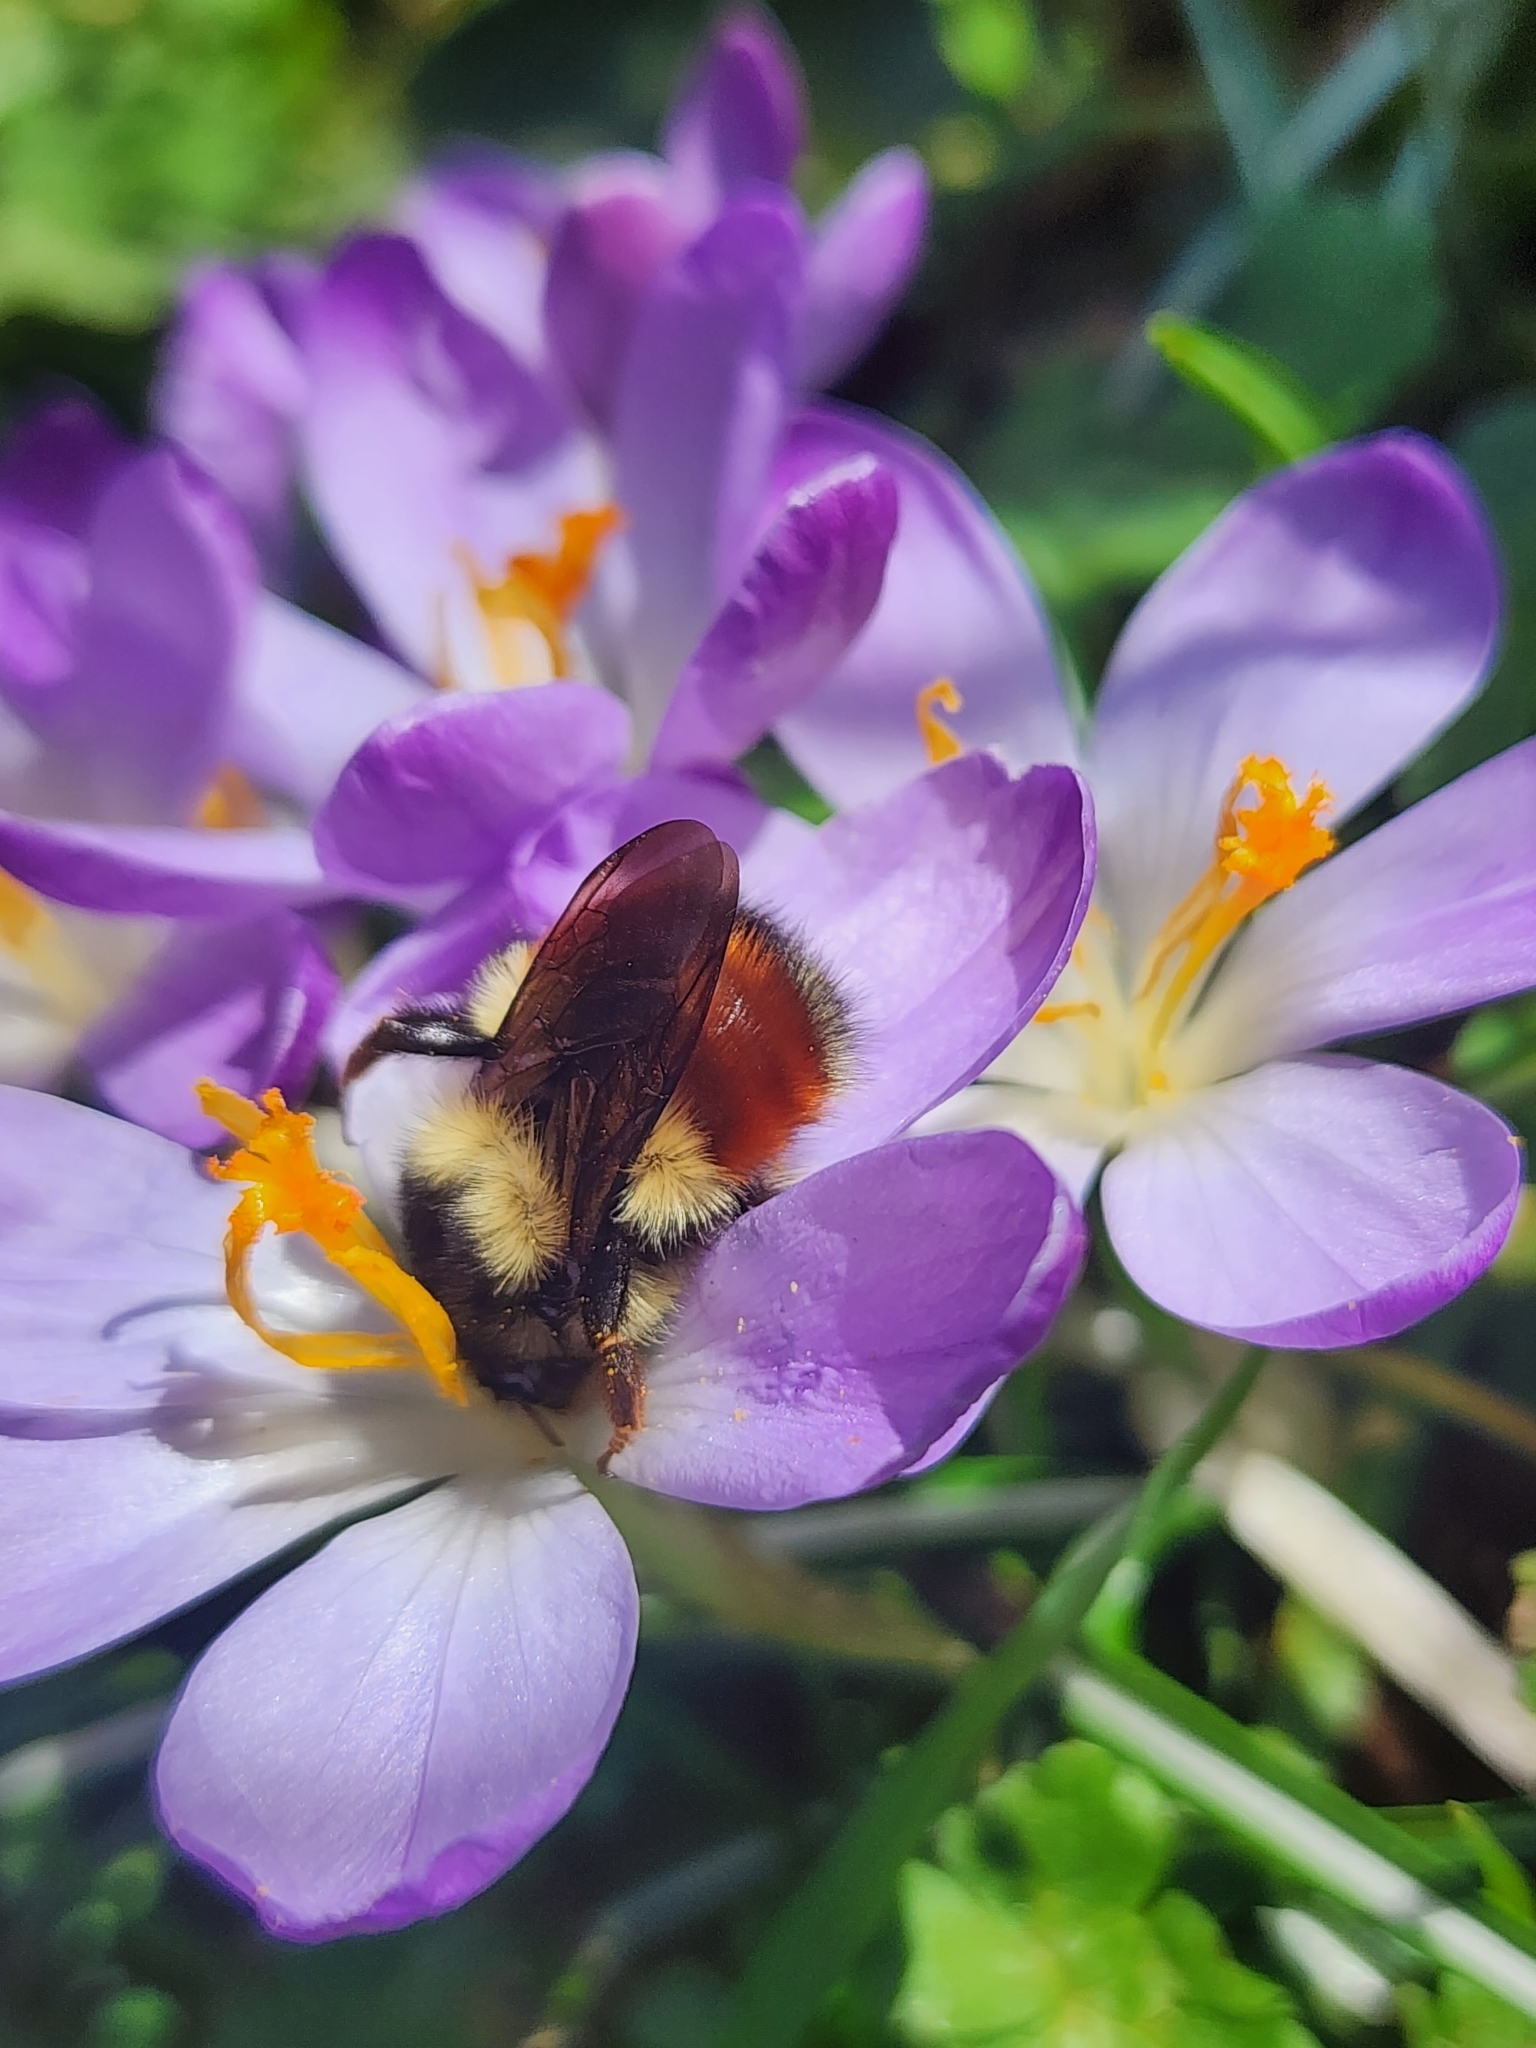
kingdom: Animalia
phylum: Arthropoda
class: Insecta
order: Hymenoptera
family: Apidae
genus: Bombus
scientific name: Bombus melanopygus
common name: Black tail bumble bee
